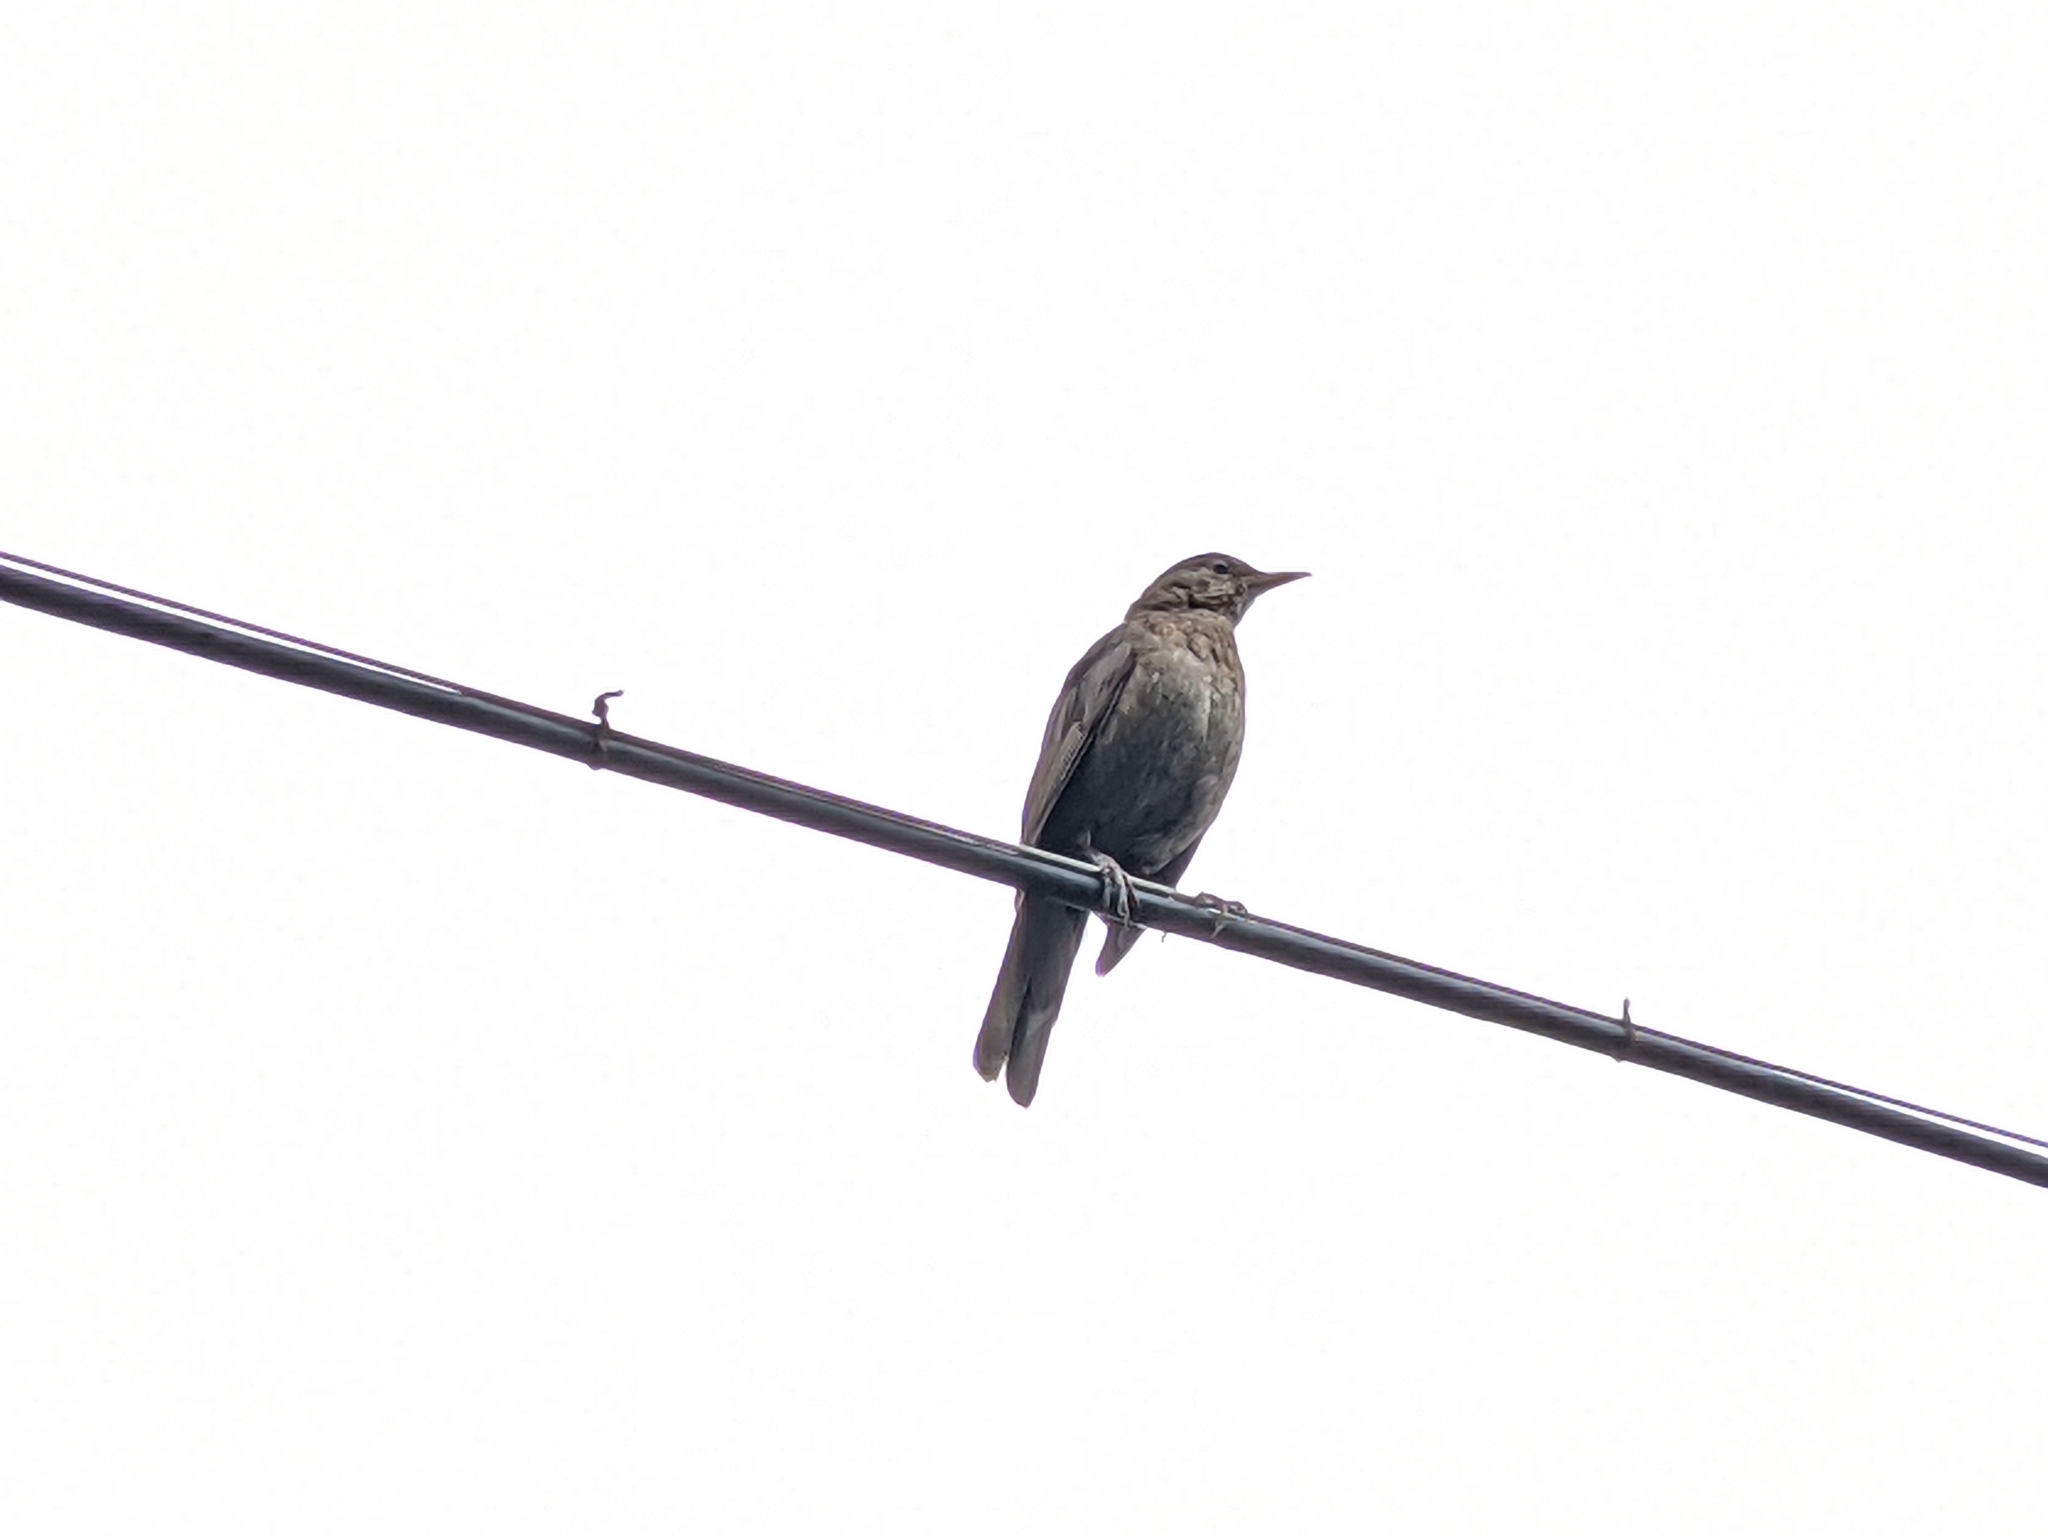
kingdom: Animalia
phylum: Chordata
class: Aves
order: Passeriformes
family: Turdidae
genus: Turdus
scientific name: Turdus merula
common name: Common blackbird
